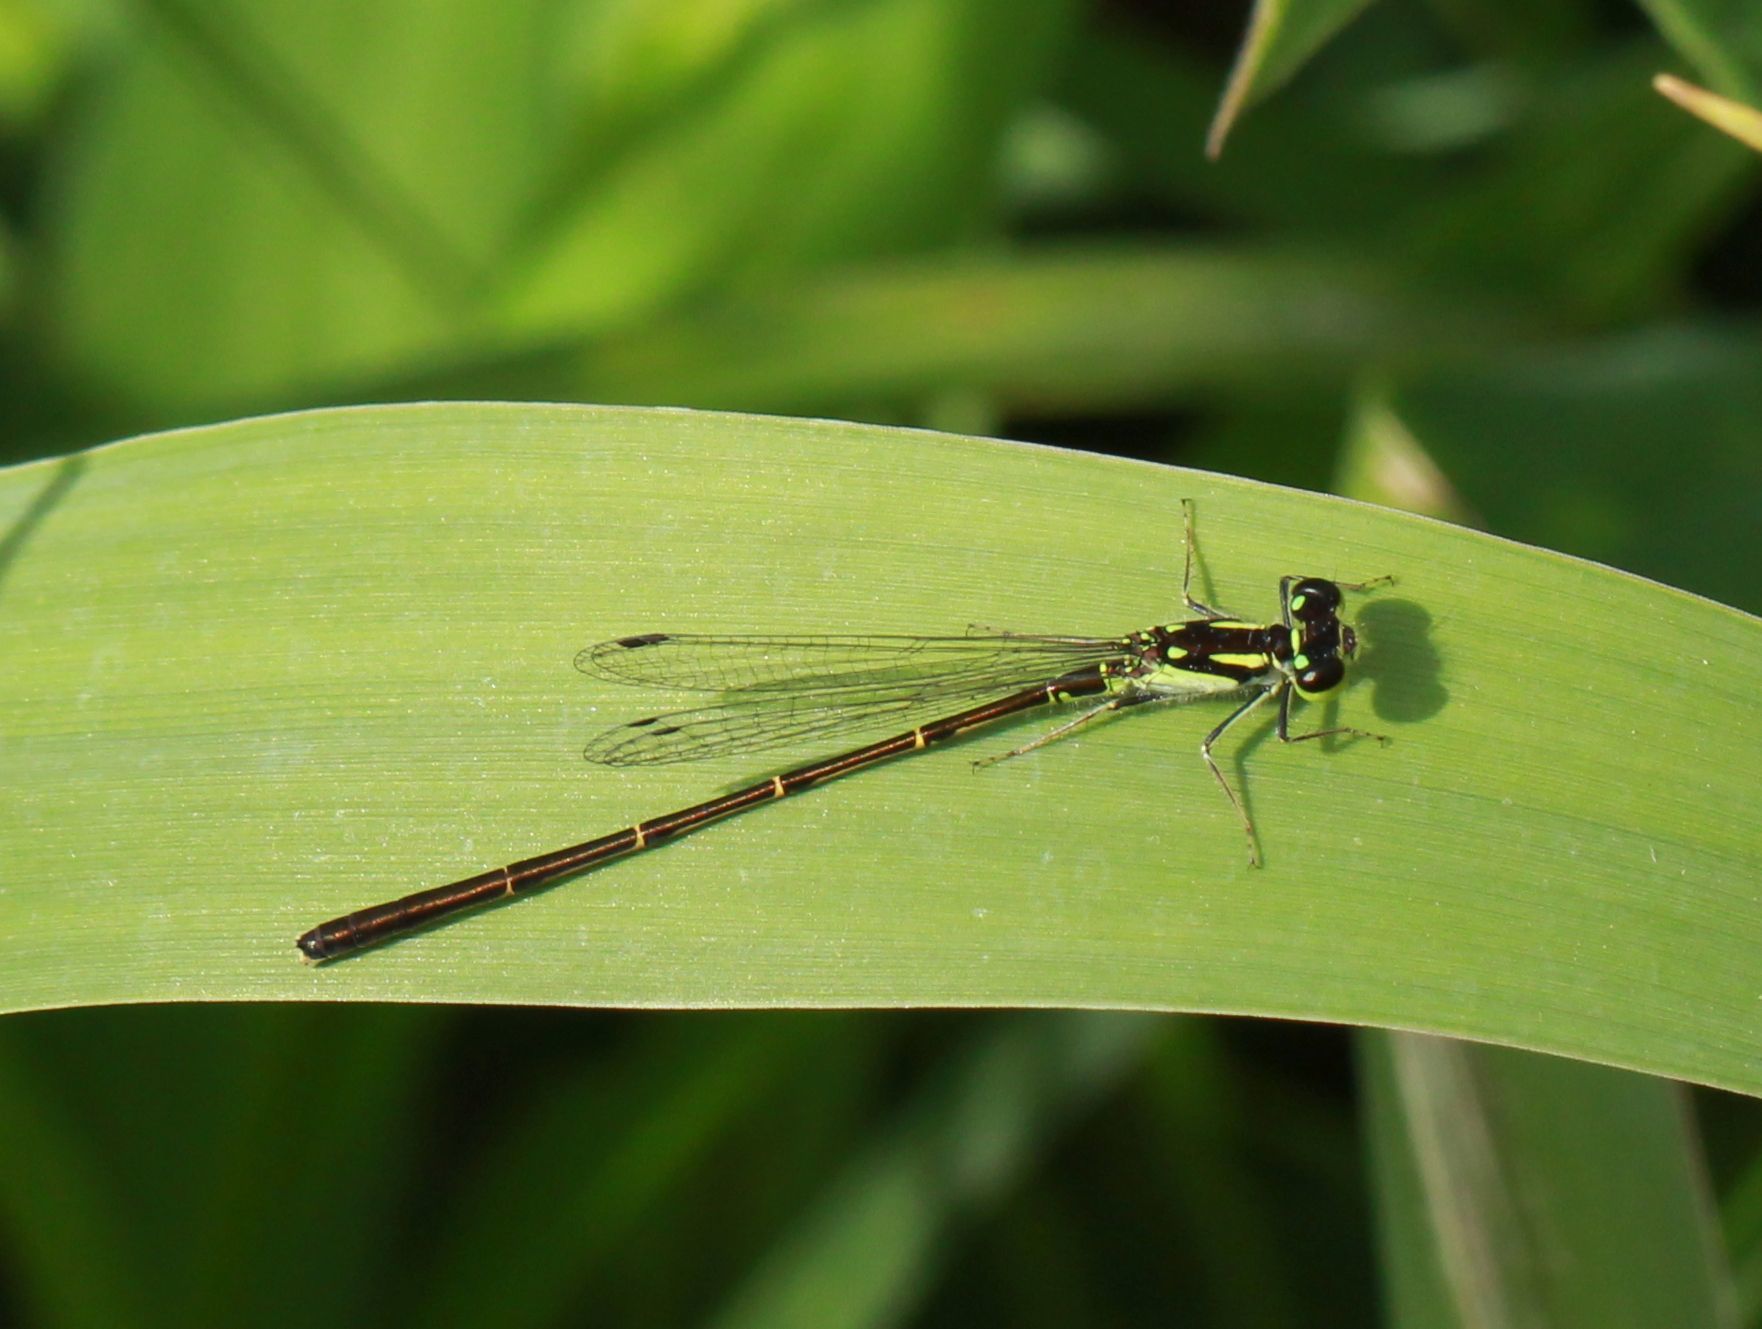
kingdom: Animalia
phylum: Arthropoda
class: Insecta
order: Odonata
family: Coenagrionidae
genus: Ischnura
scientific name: Ischnura posita
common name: Fragile forktail
